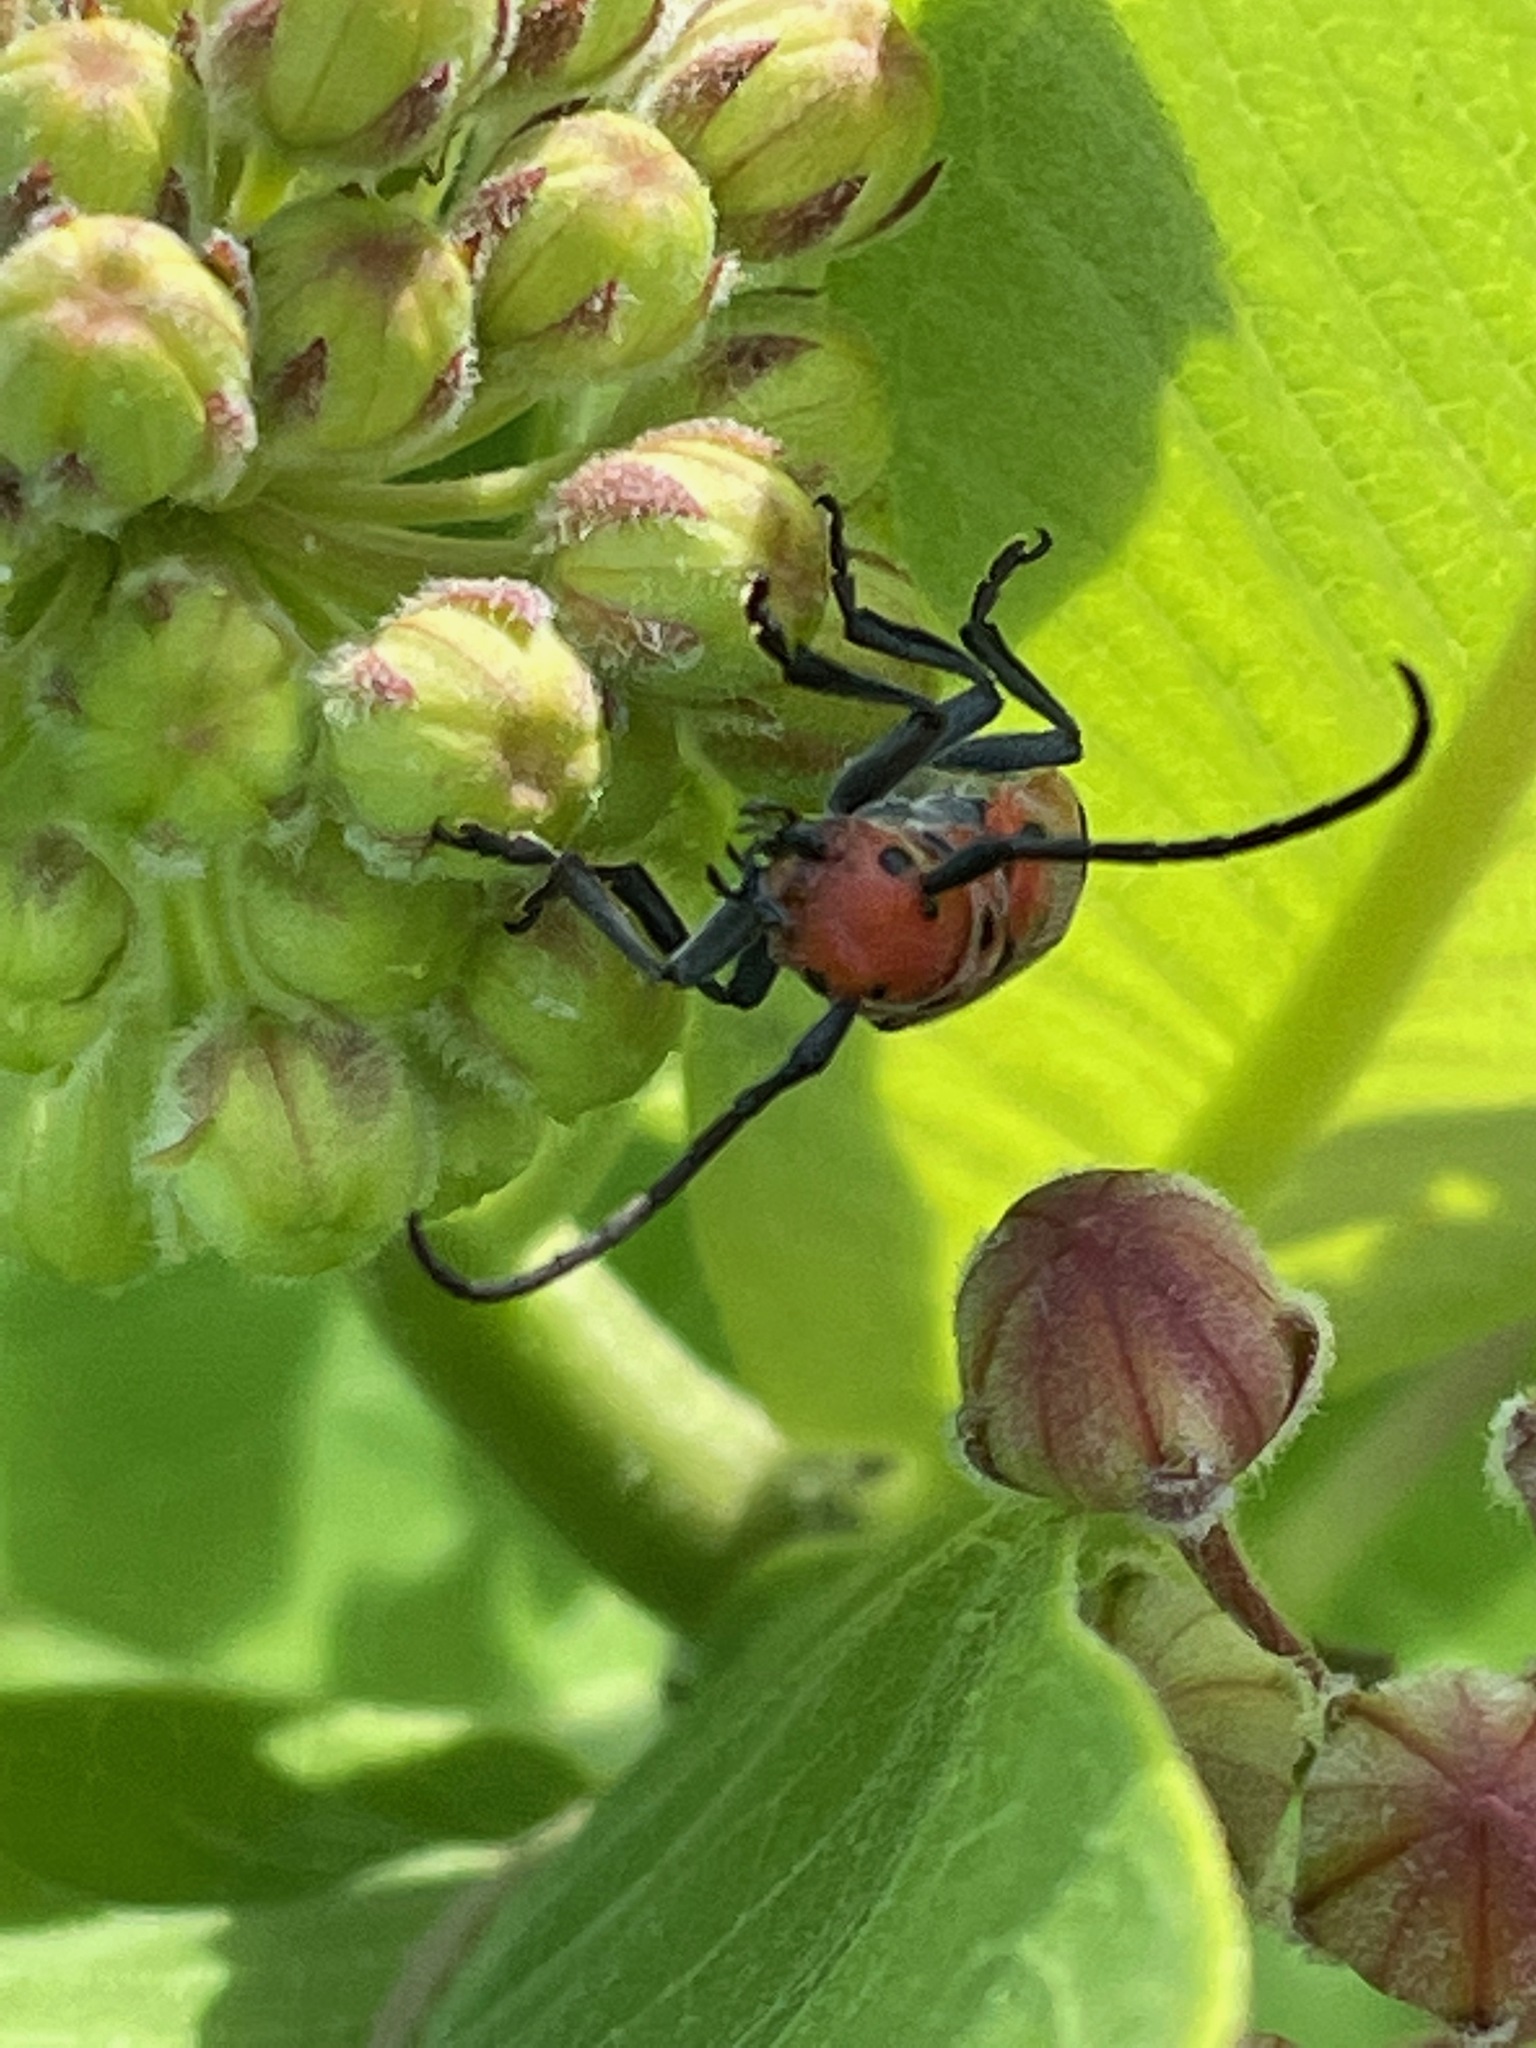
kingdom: Animalia
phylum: Arthropoda
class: Insecta
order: Coleoptera
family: Cerambycidae
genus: Tetraopes
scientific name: Tetraopes tetrophthalmus
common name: Red milkweed beetle
